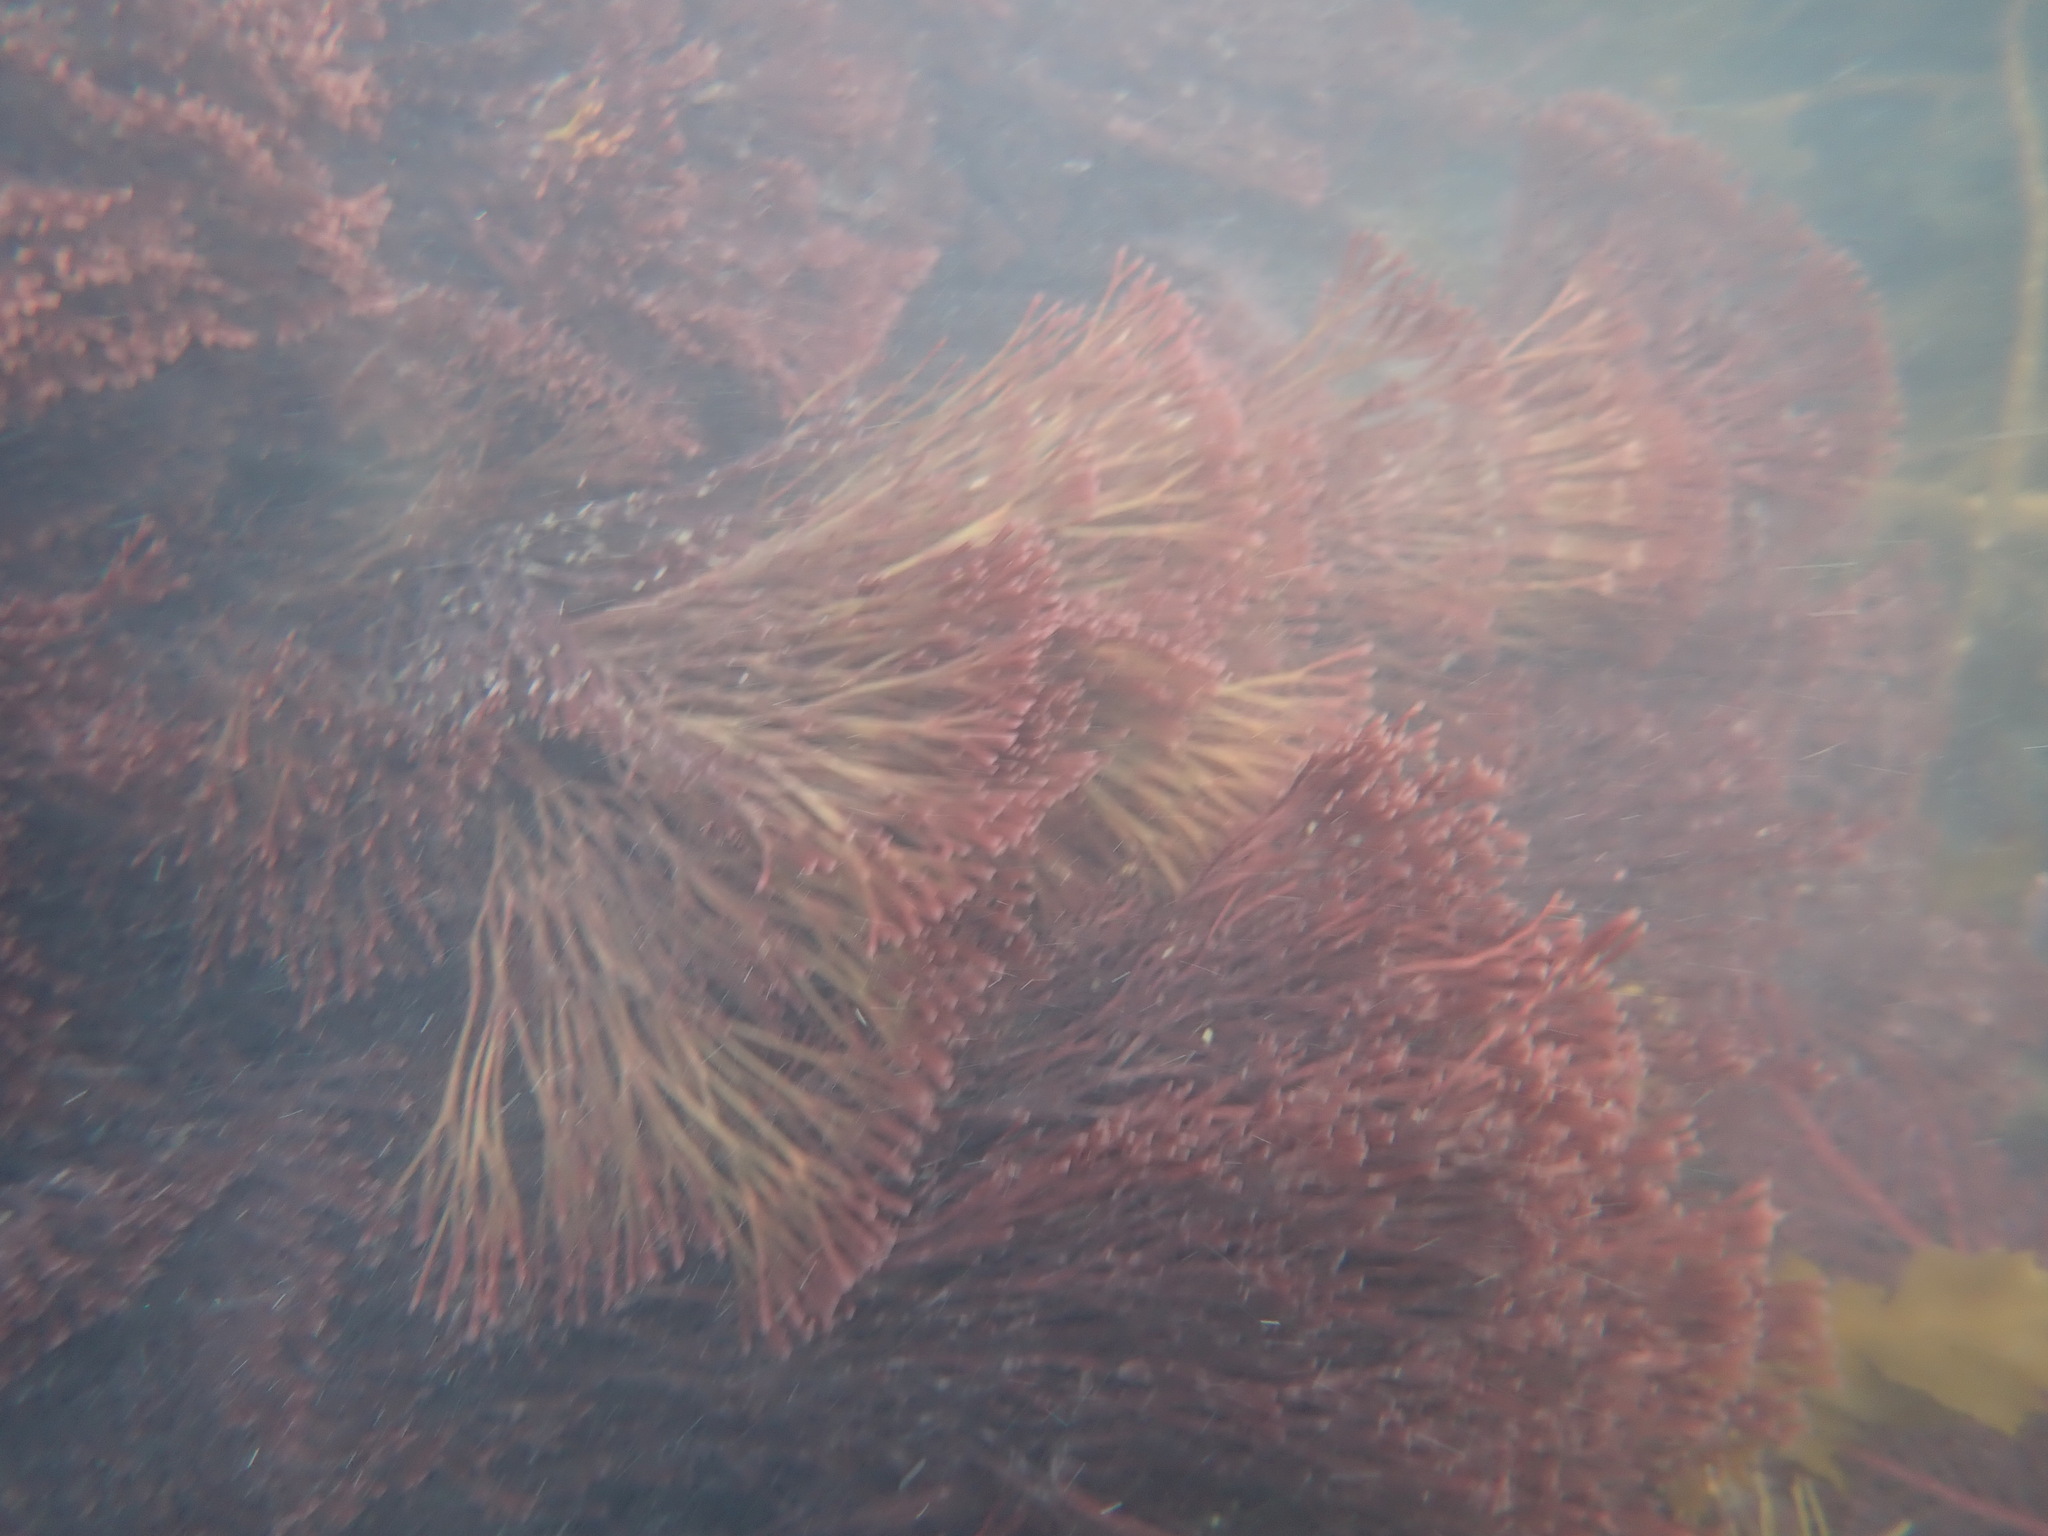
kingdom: Plantae
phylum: Rhodophyta
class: Florideophyceae
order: Gracilariales
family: Gracilariaceae
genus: Melanthalia
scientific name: Melanthalia abscissa
